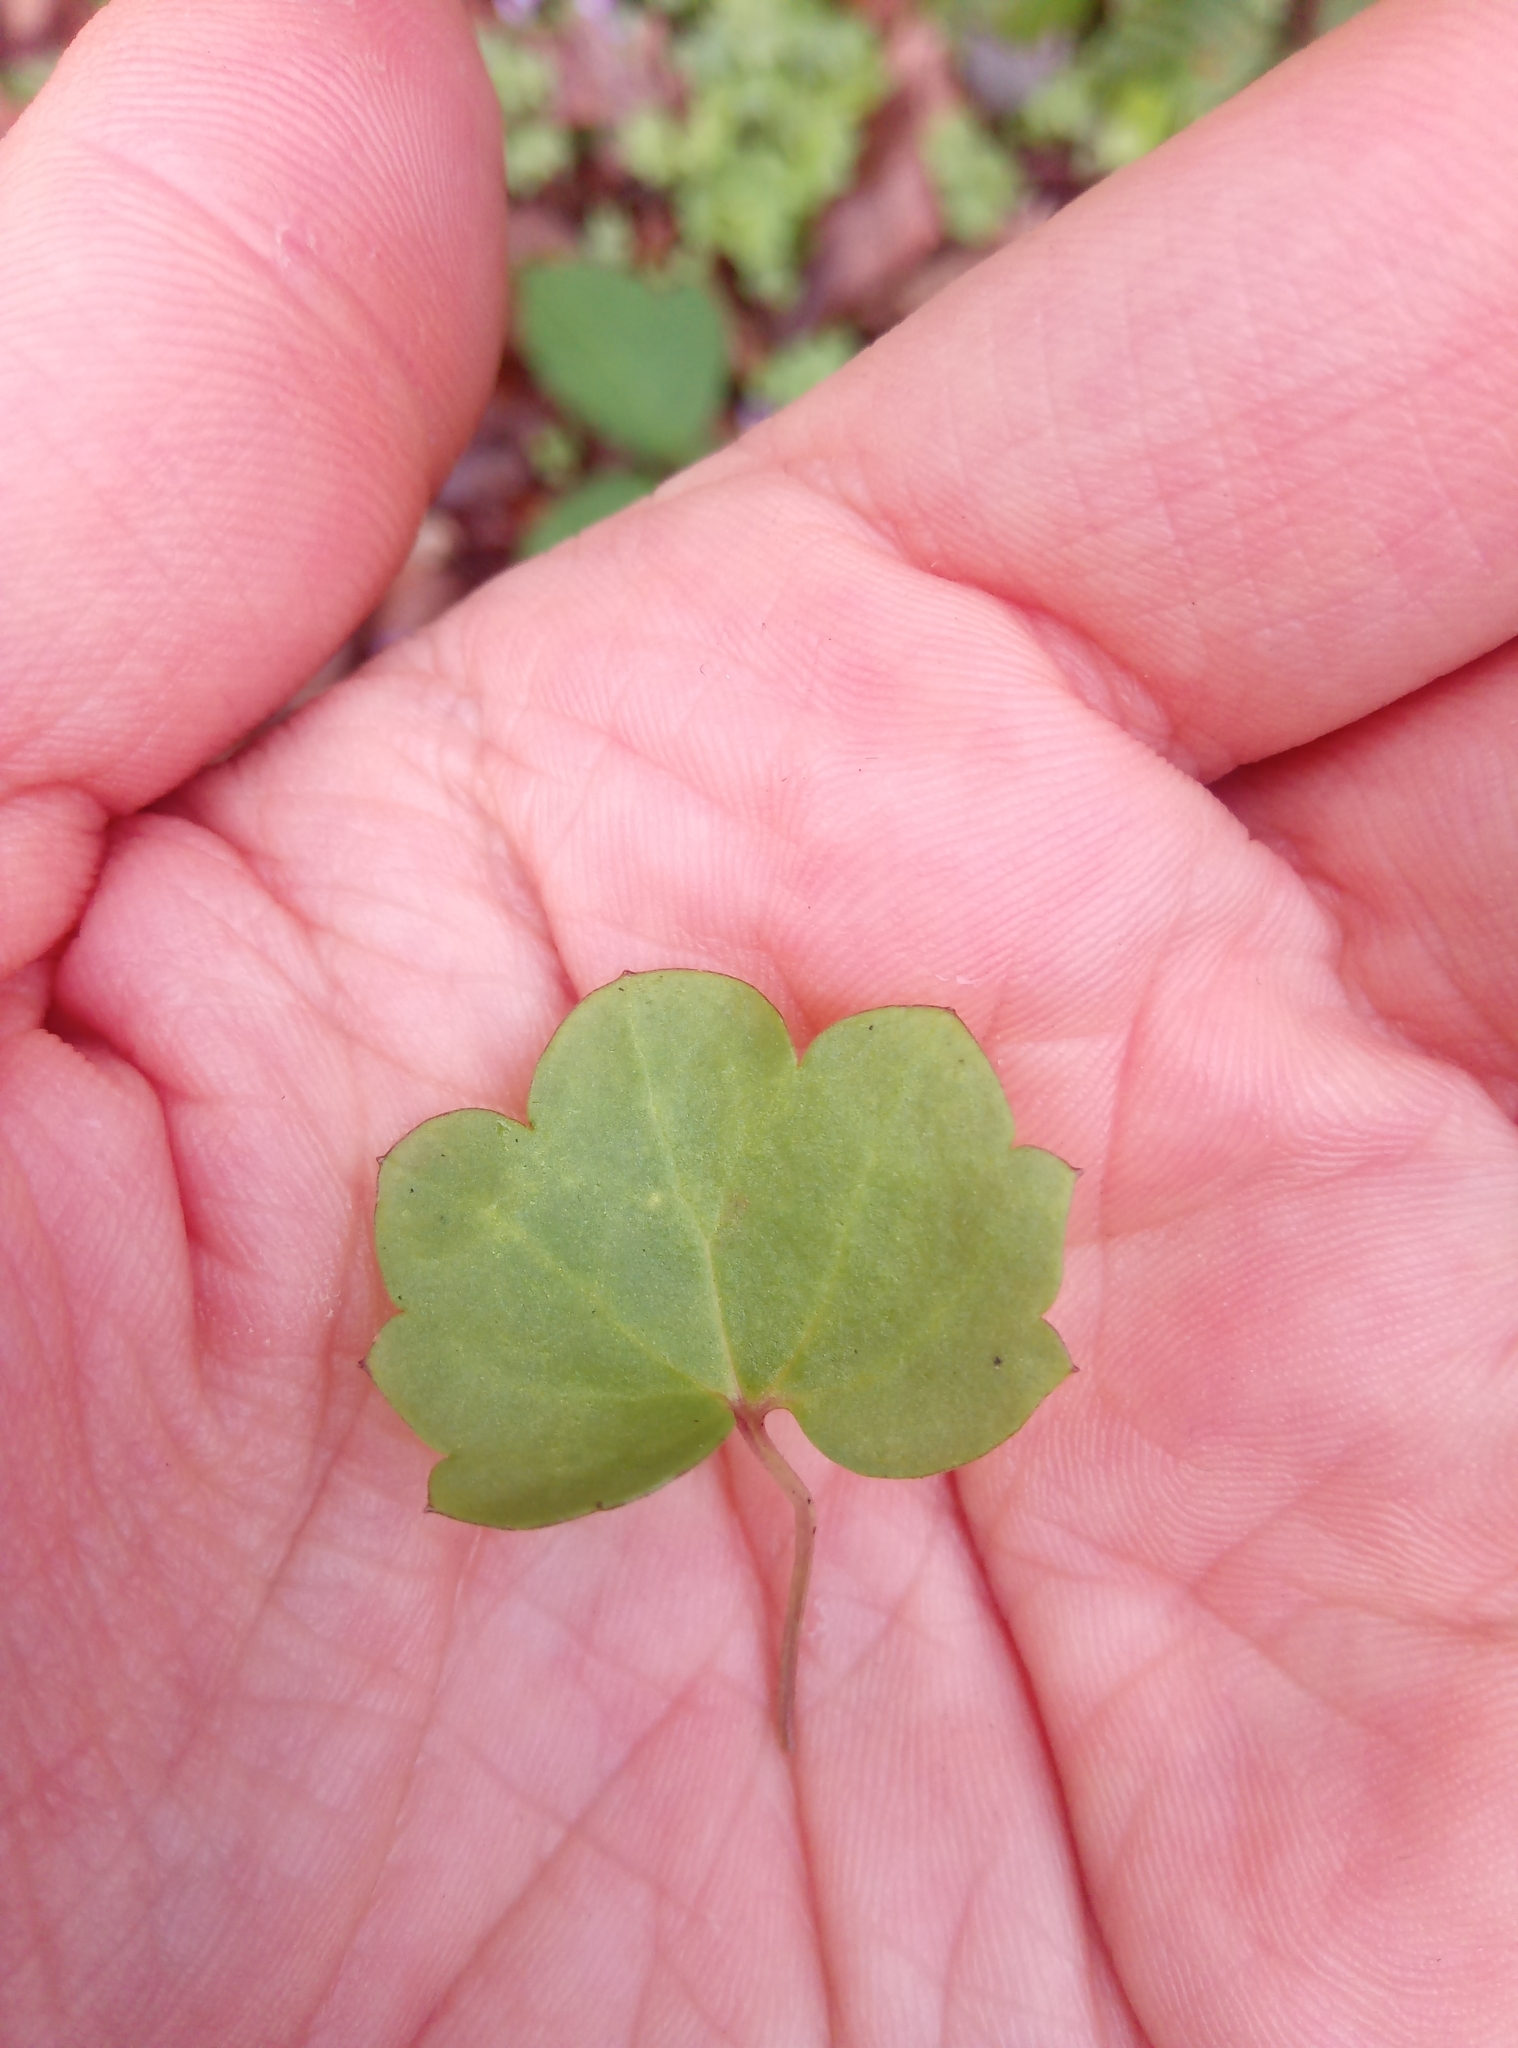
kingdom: Plantae
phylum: Tracheophyta
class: Magnoliopsida
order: Lamiales
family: Plantaginaceae
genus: Cymbalaria
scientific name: Cymbalaria muralis
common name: Ivy-leaved toadflax
